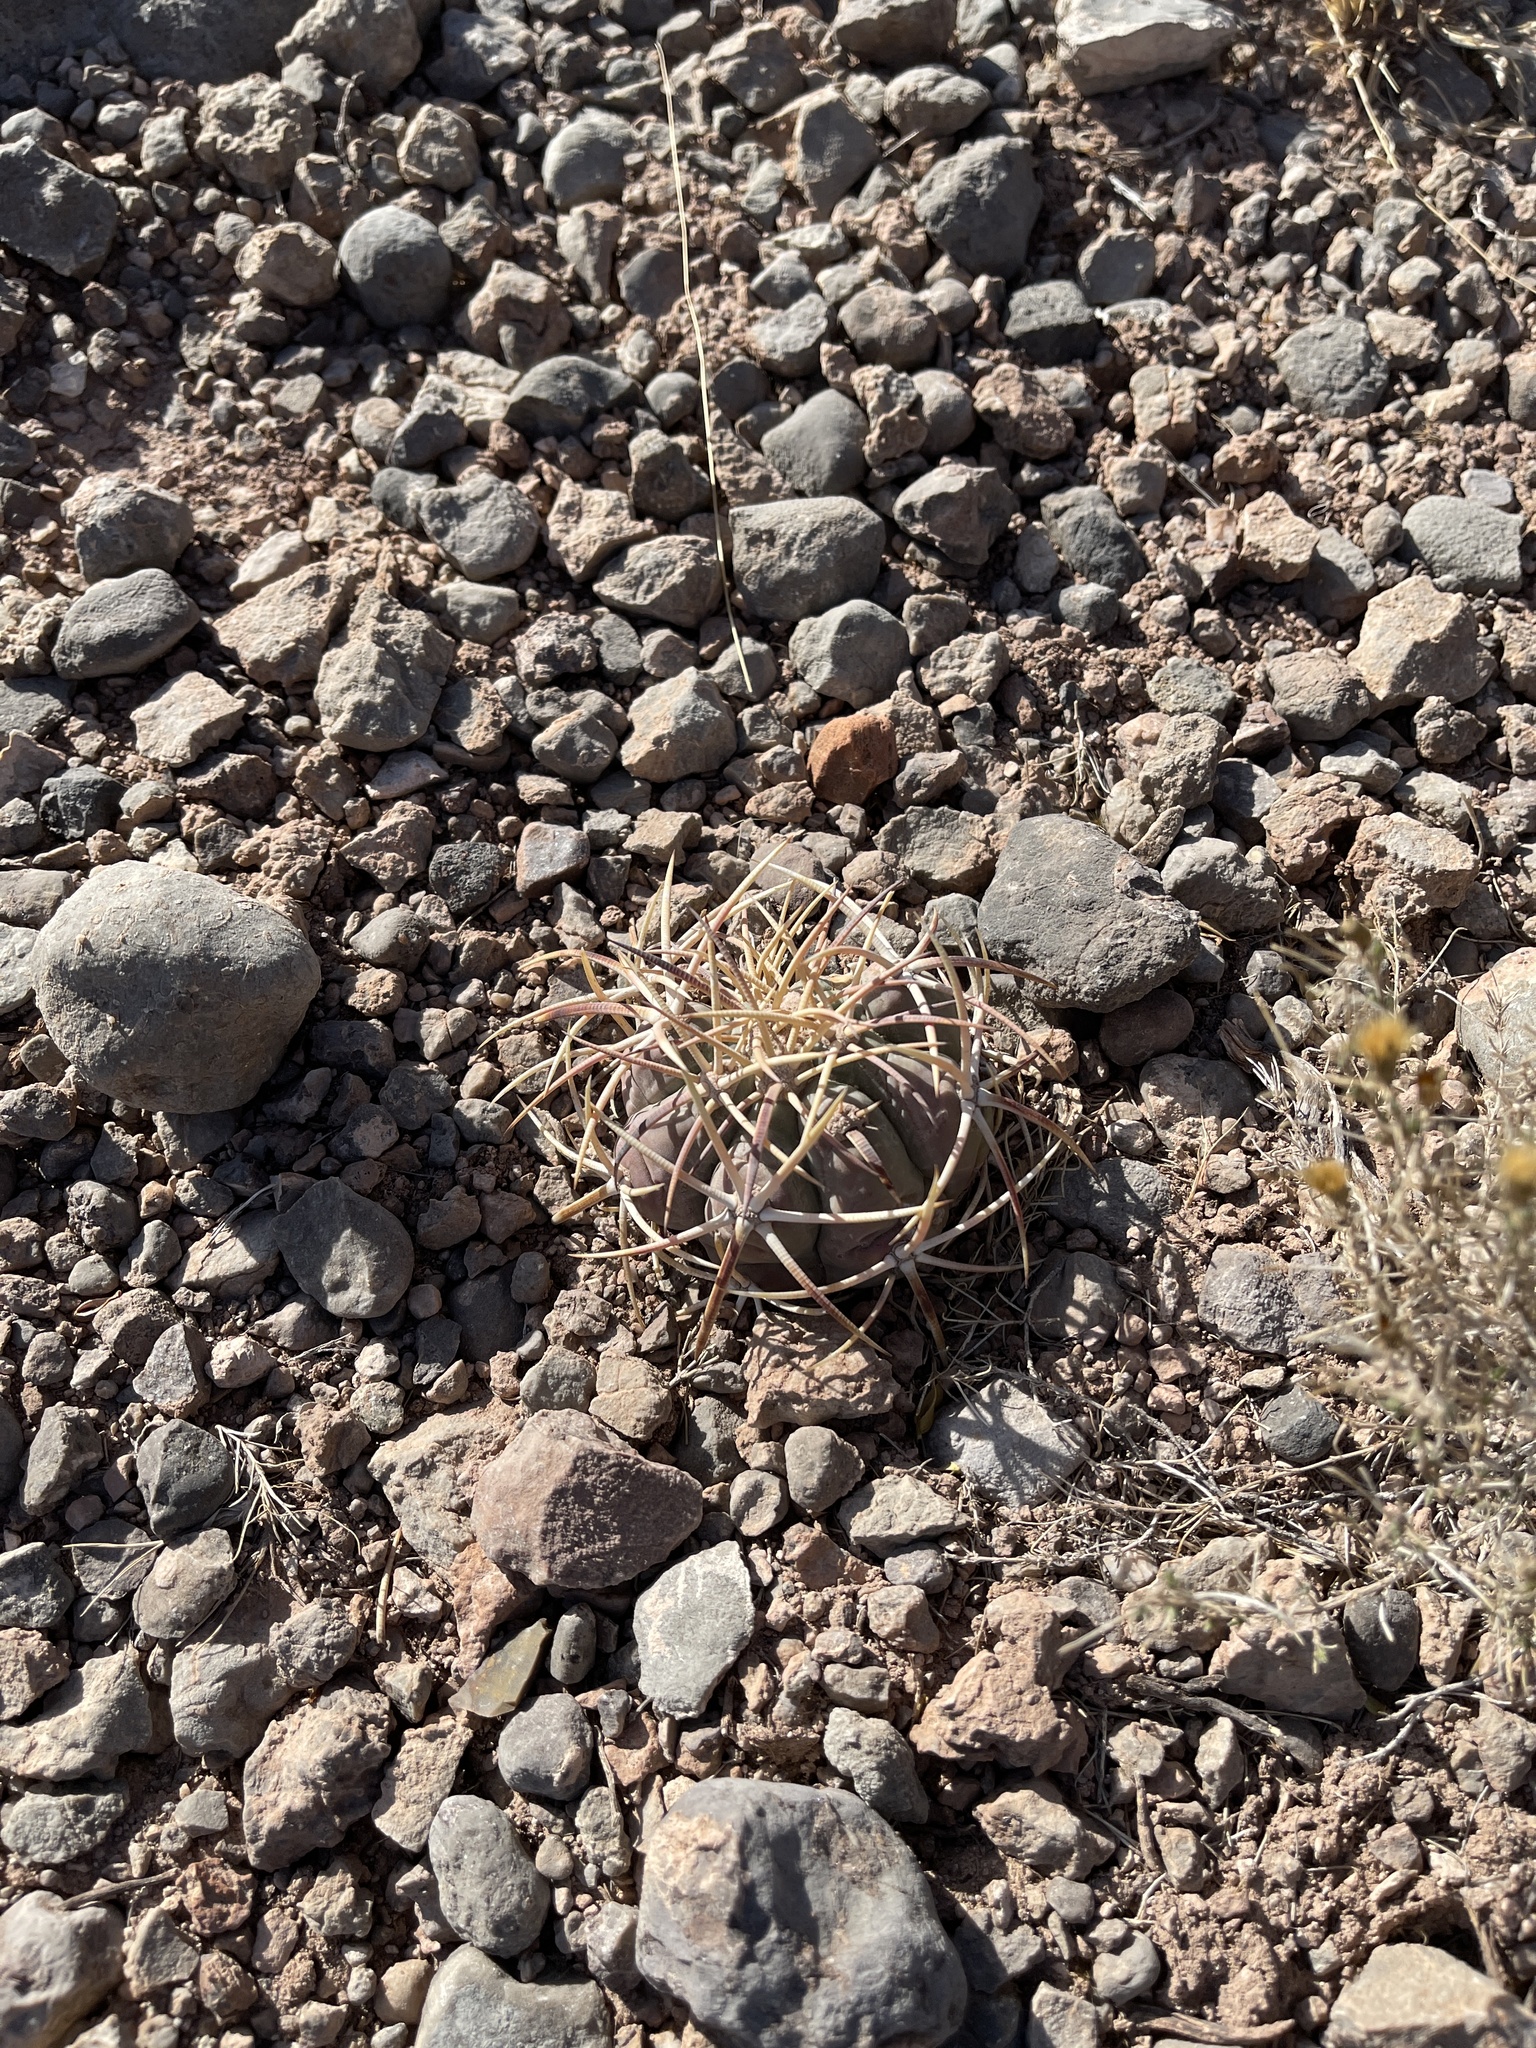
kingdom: Plantae
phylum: Tracheophyta
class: Magnoliopsida
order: Caryophyllales
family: Cactaceae
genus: Echinocactus
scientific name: Echinocactus horizonthalonius
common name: Devilshead
